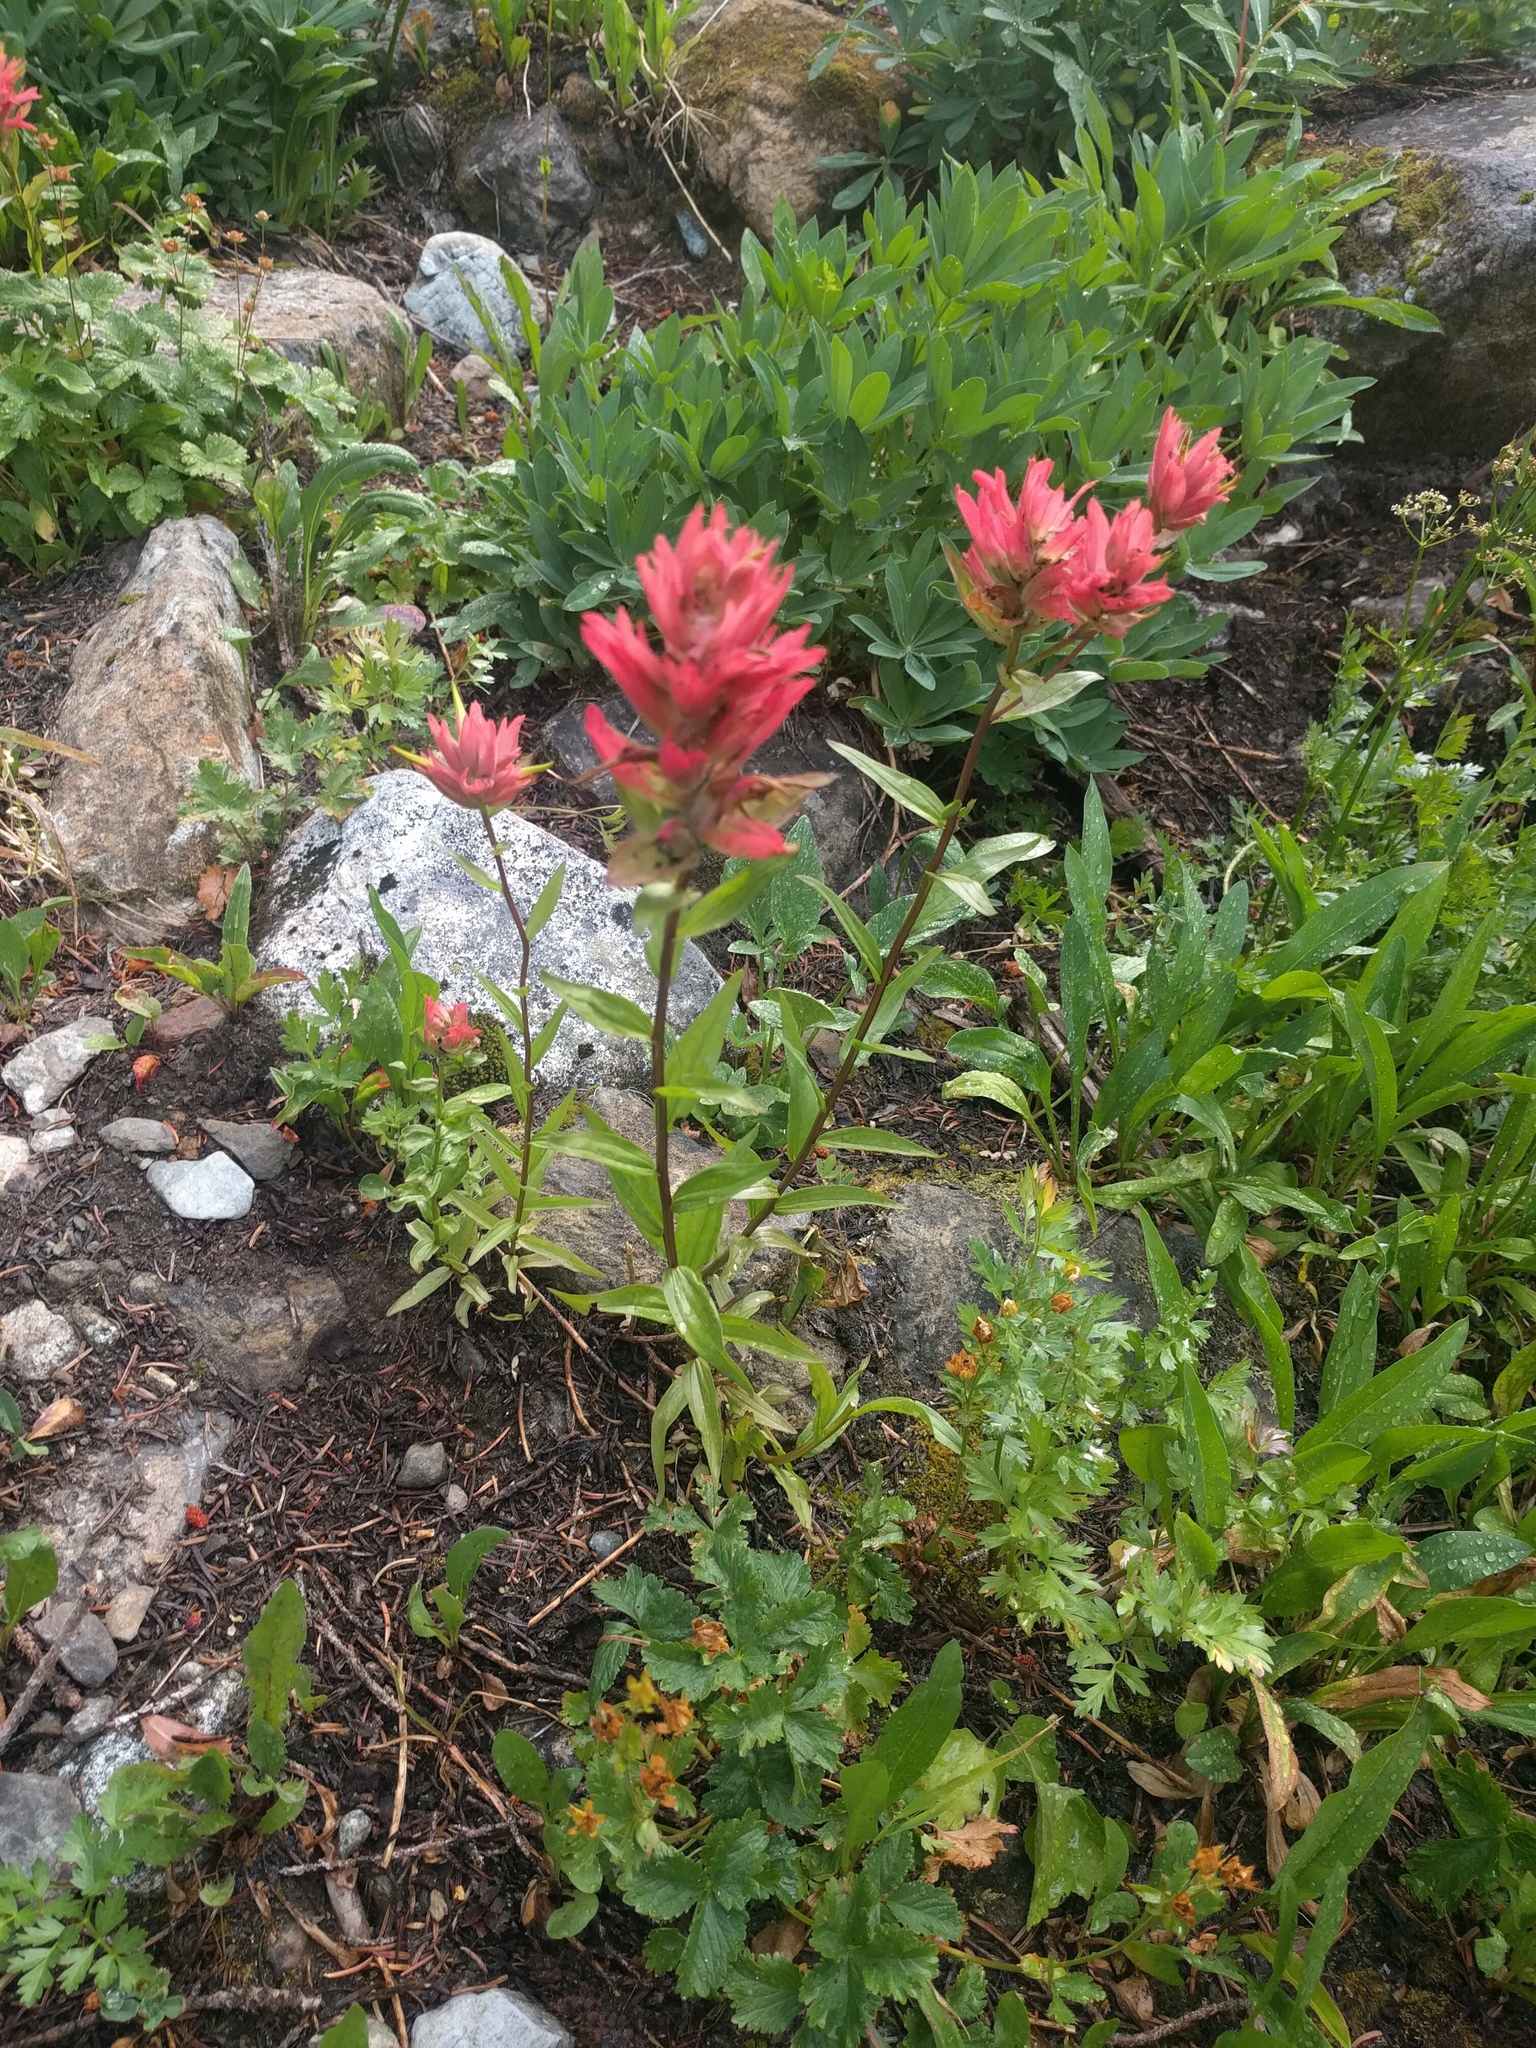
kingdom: Plantae
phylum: Tracheophyta
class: Magnoliopsida
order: Lamiales
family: Orobanchaceae
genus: Castilleja
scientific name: Castilleja miniata
